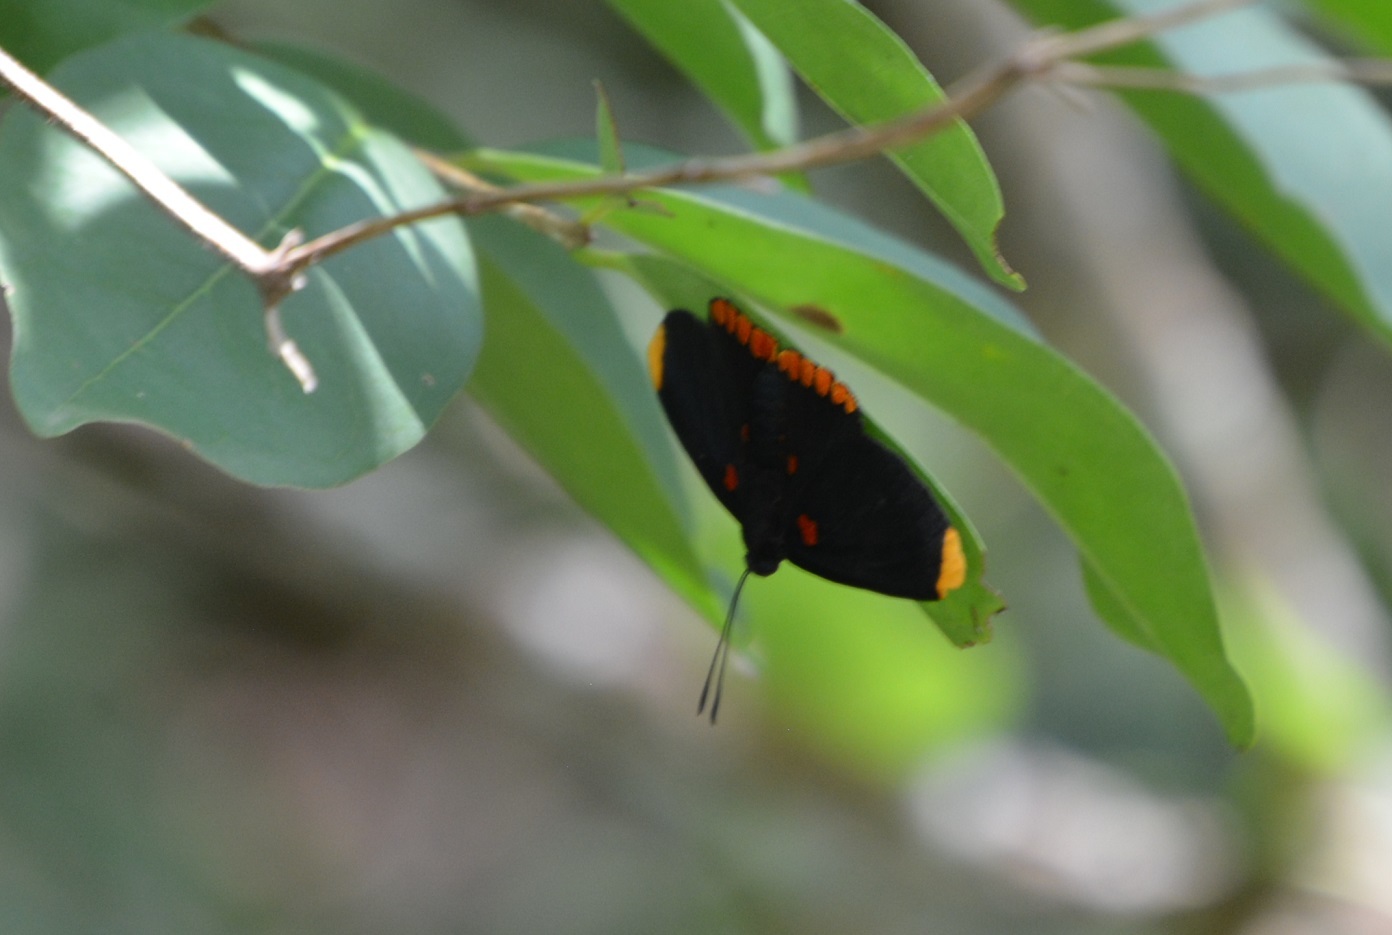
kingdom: Animalia
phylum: Arthropoda
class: Insecta
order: Lepidoptera
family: Lycaenidae
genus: Melanis
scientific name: Melanis pixe
